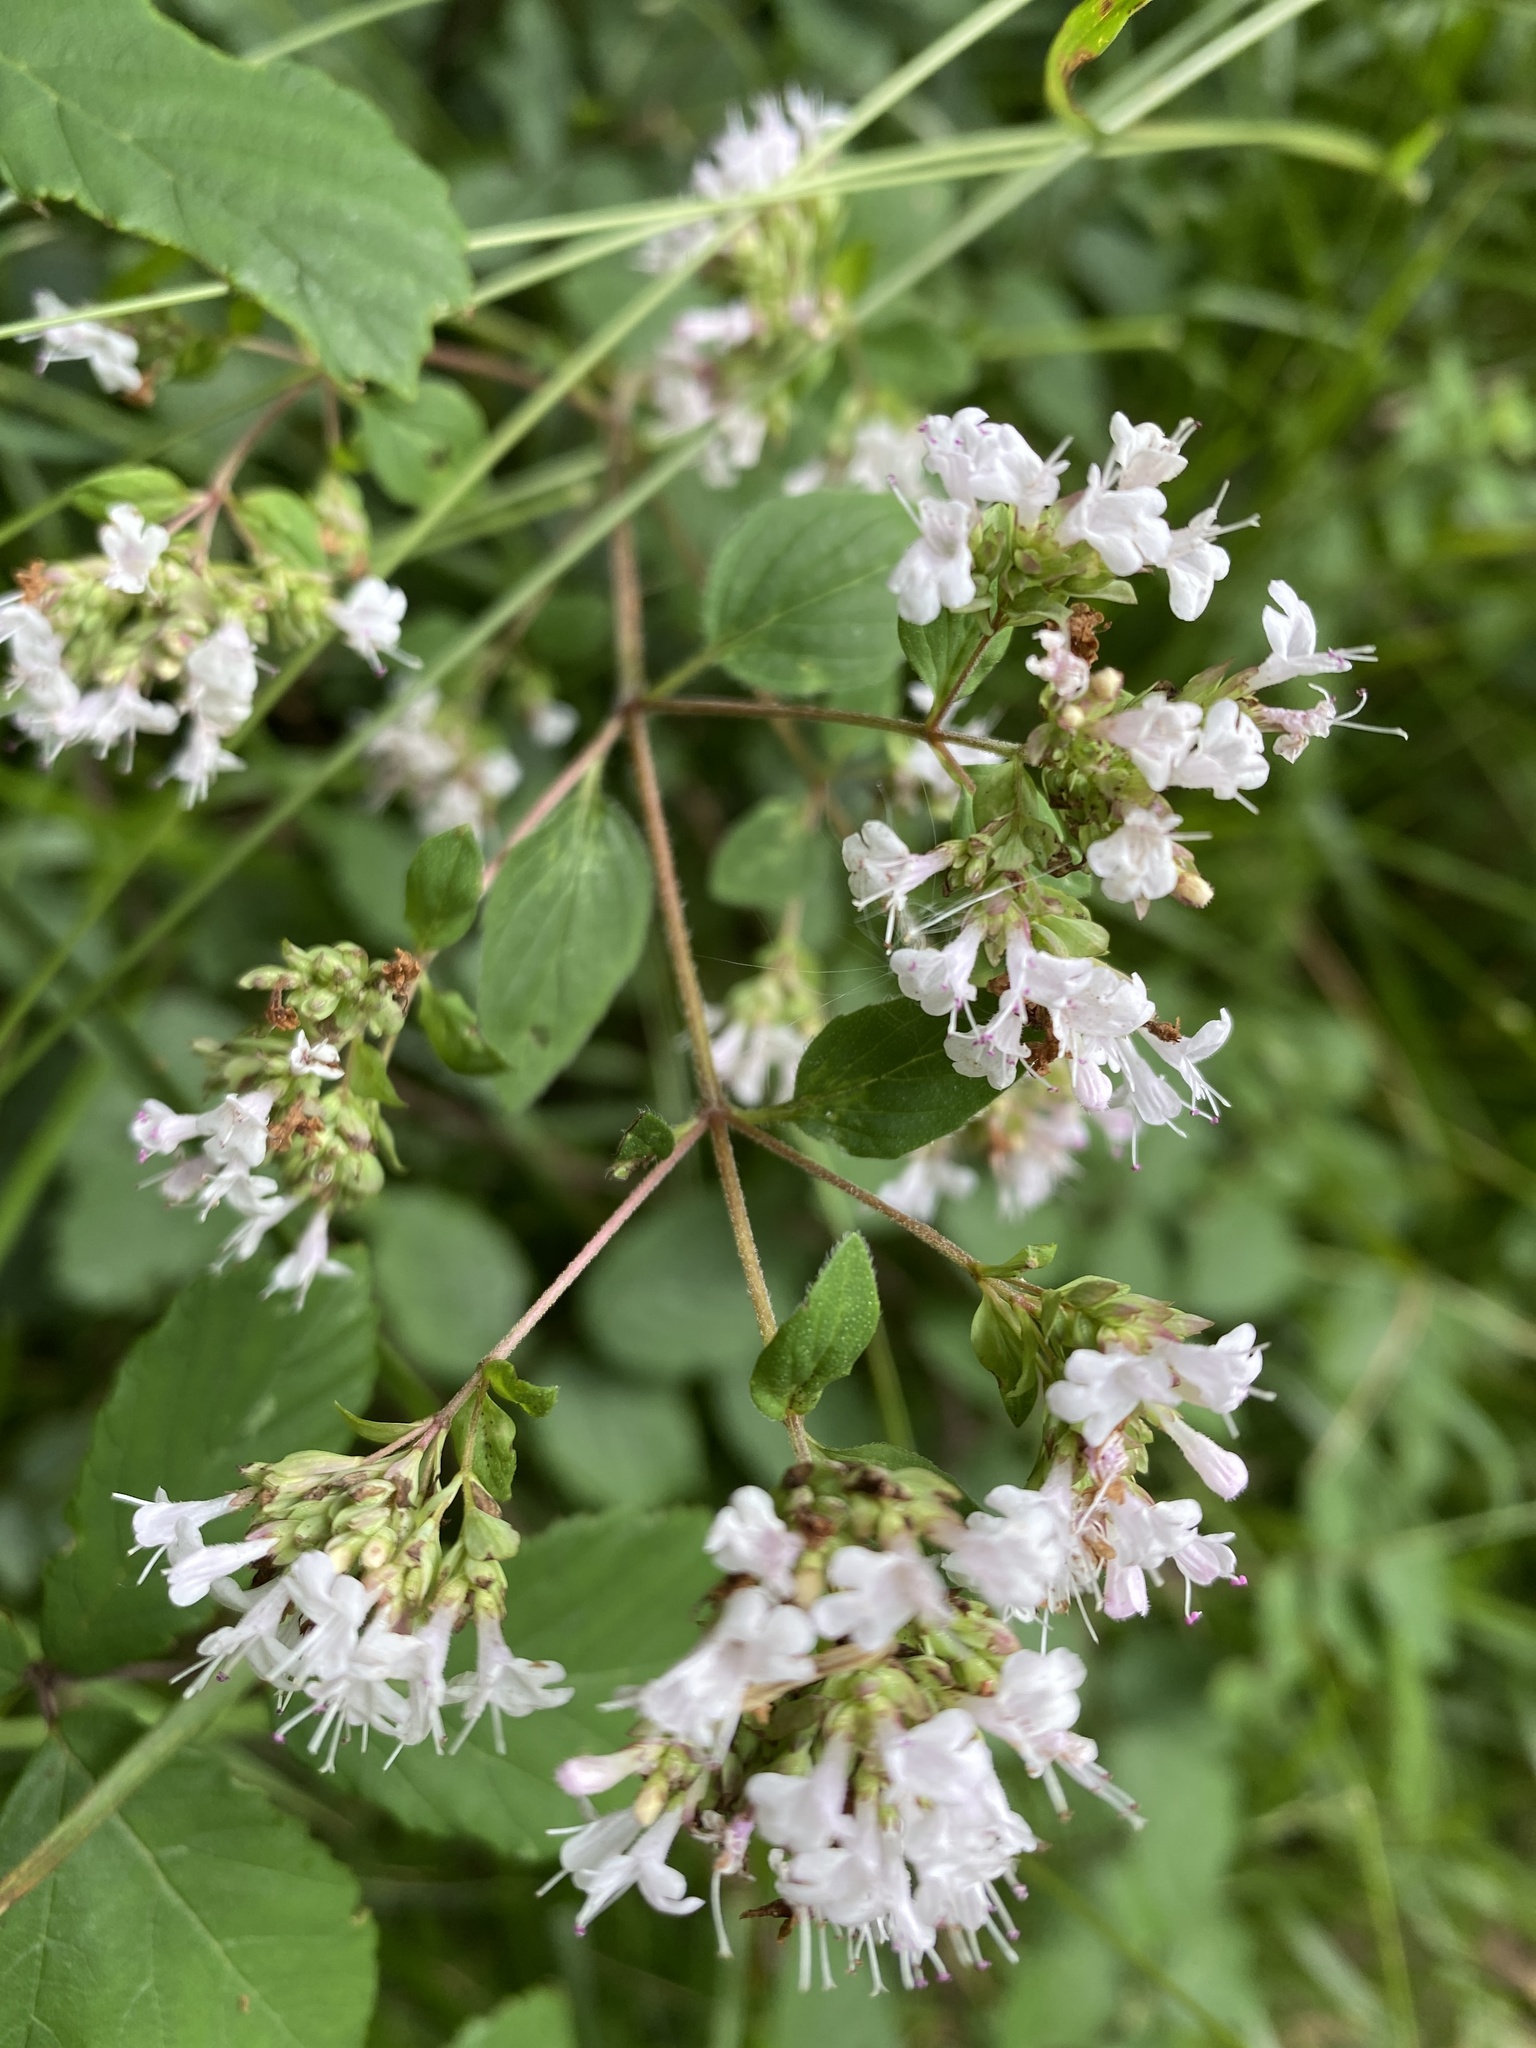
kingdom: Plantae
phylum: Tracheophyta
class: Magnoliopsida
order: Lamiales
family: Lamiaceae
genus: Origanum
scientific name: Origanum vulgare
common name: Wild marjoram
